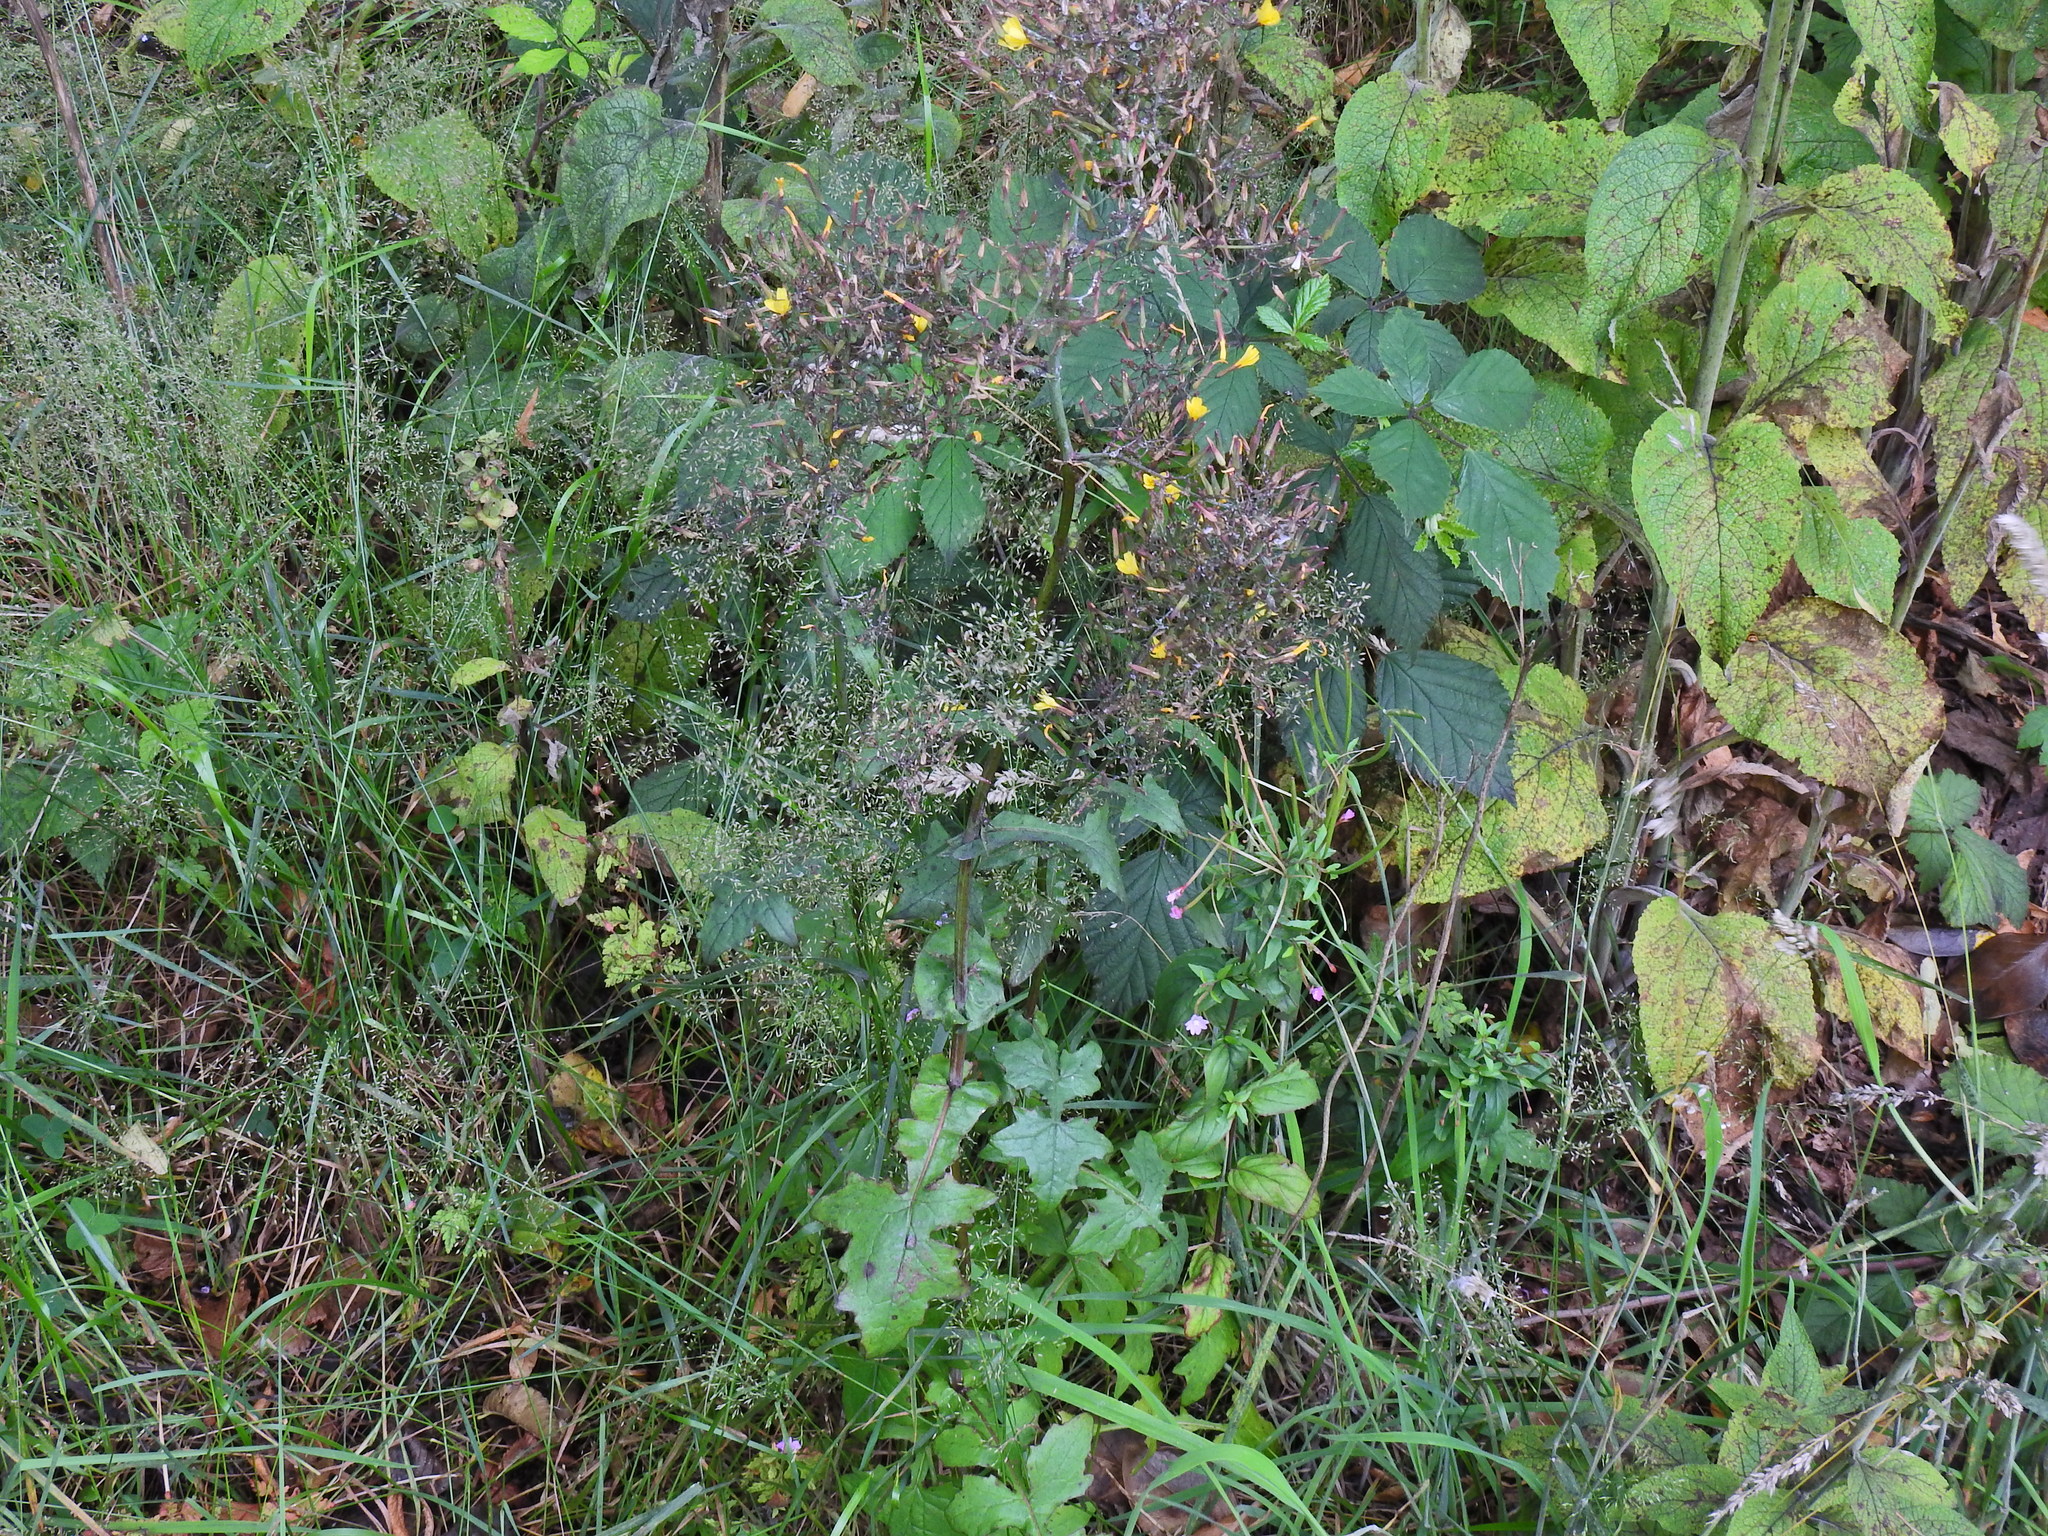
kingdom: Plantae
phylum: Tracheophyta
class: Magnoliopsida
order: Asterales
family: Asteraceae
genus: Mycelis
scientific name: Mycelis muralis
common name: Wall lettuce
